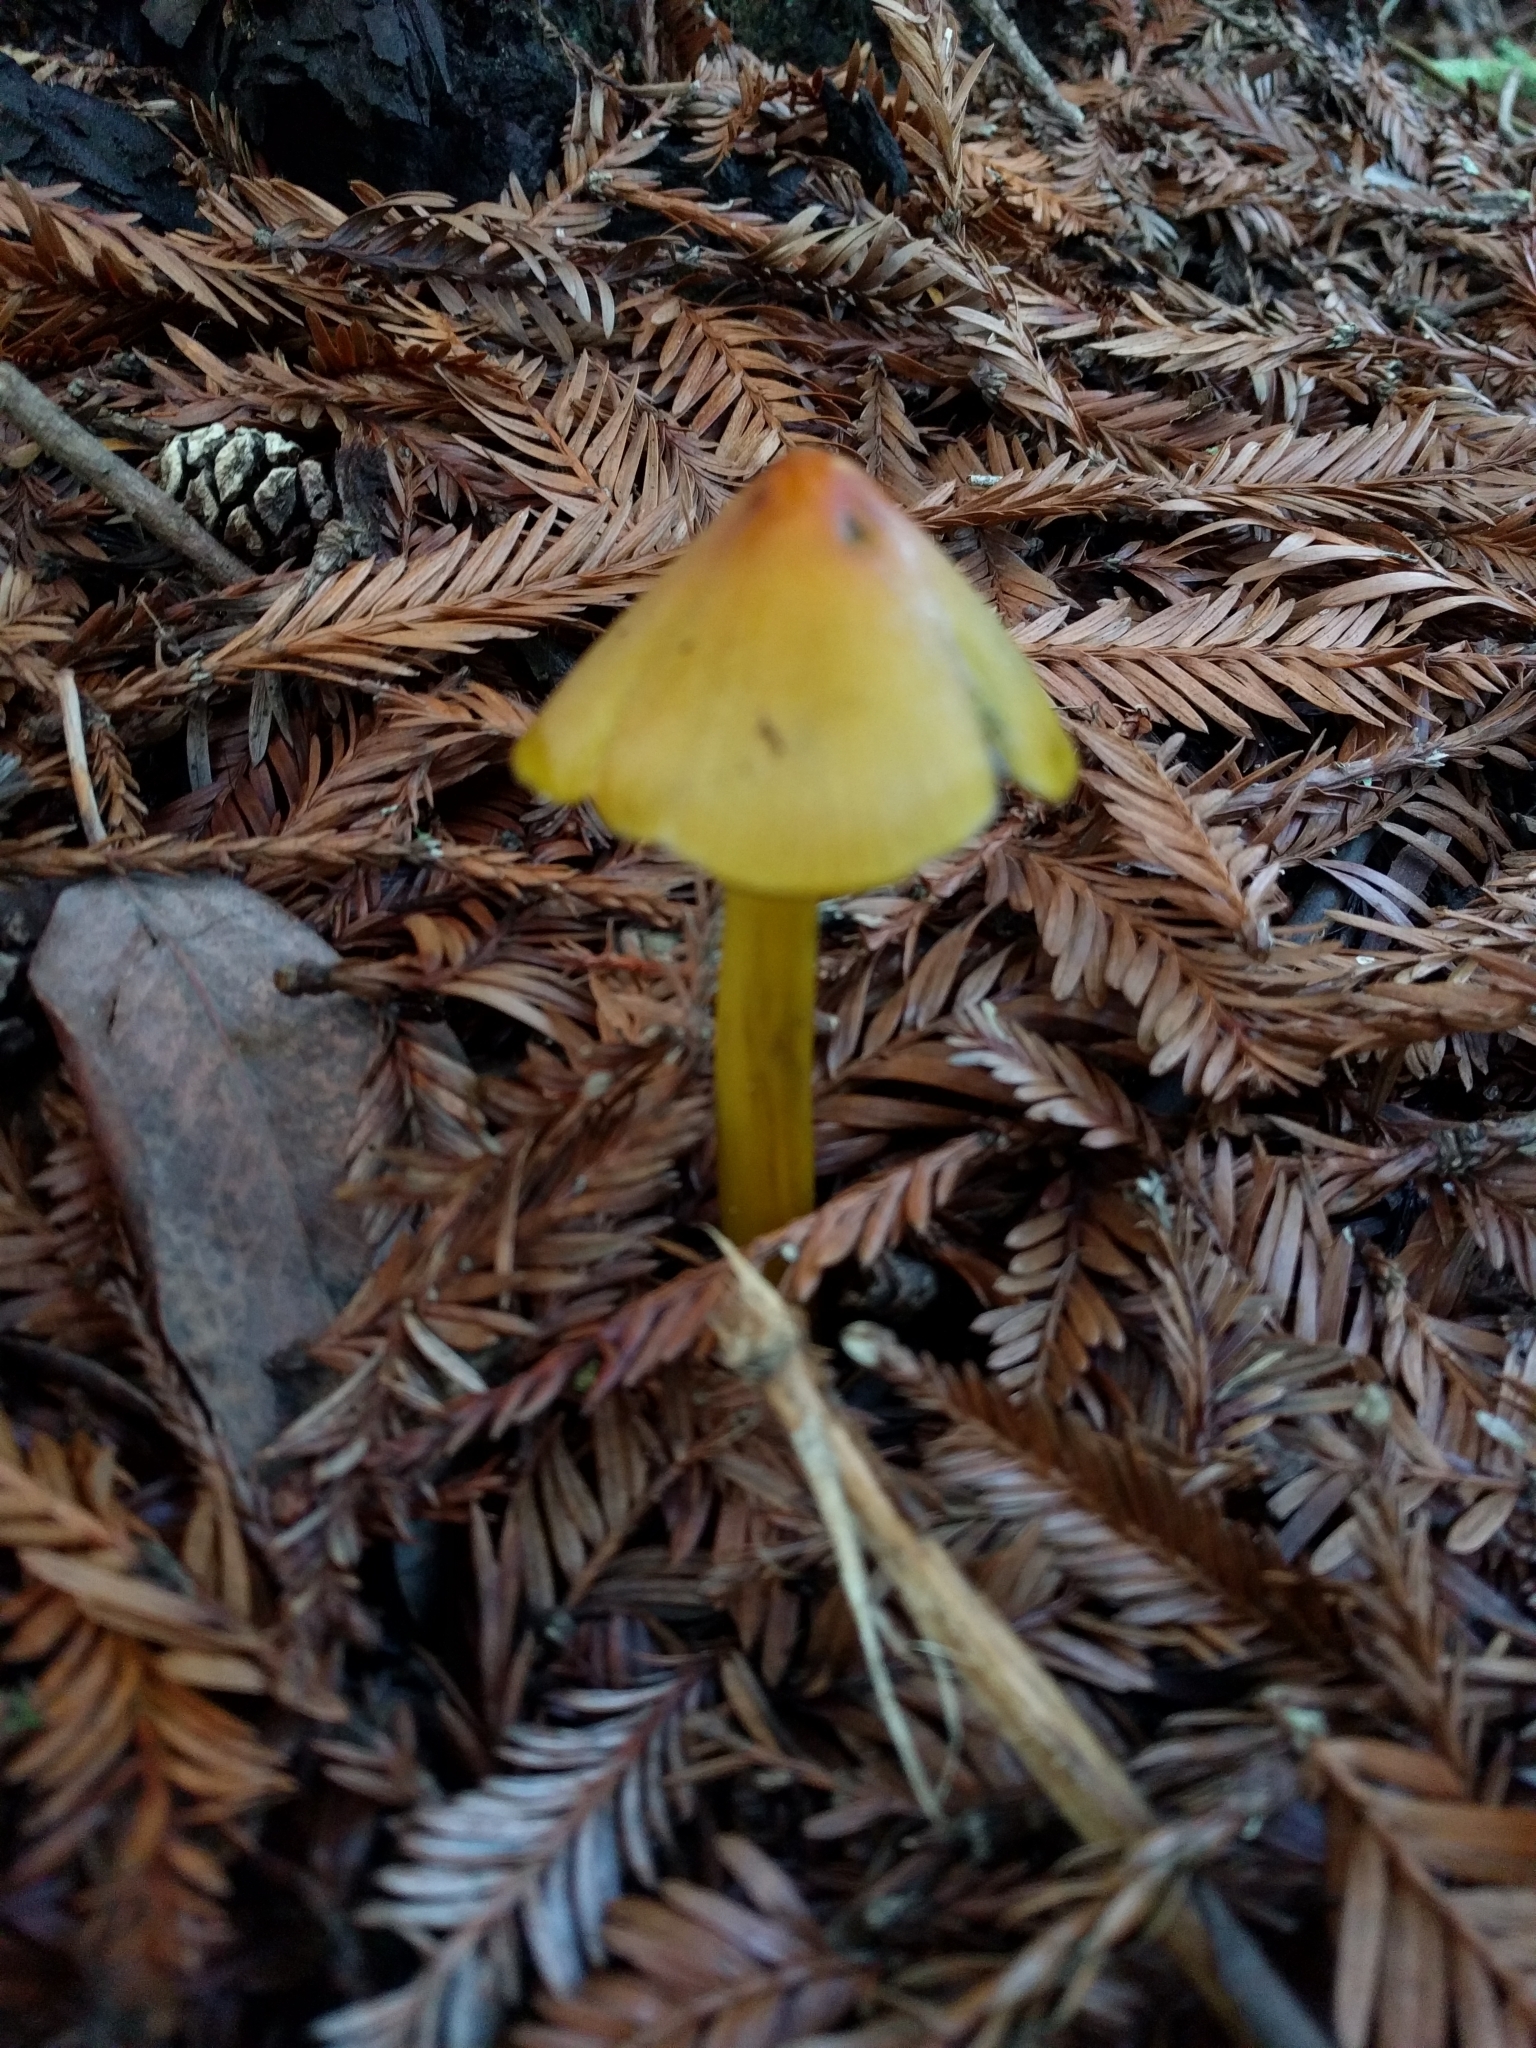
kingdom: Fungi
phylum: Basidiomycota
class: Agaricomycetes
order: Agaricales
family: Hygrophoraceae
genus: Hygrocybe
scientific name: Hygrocybe singeri
